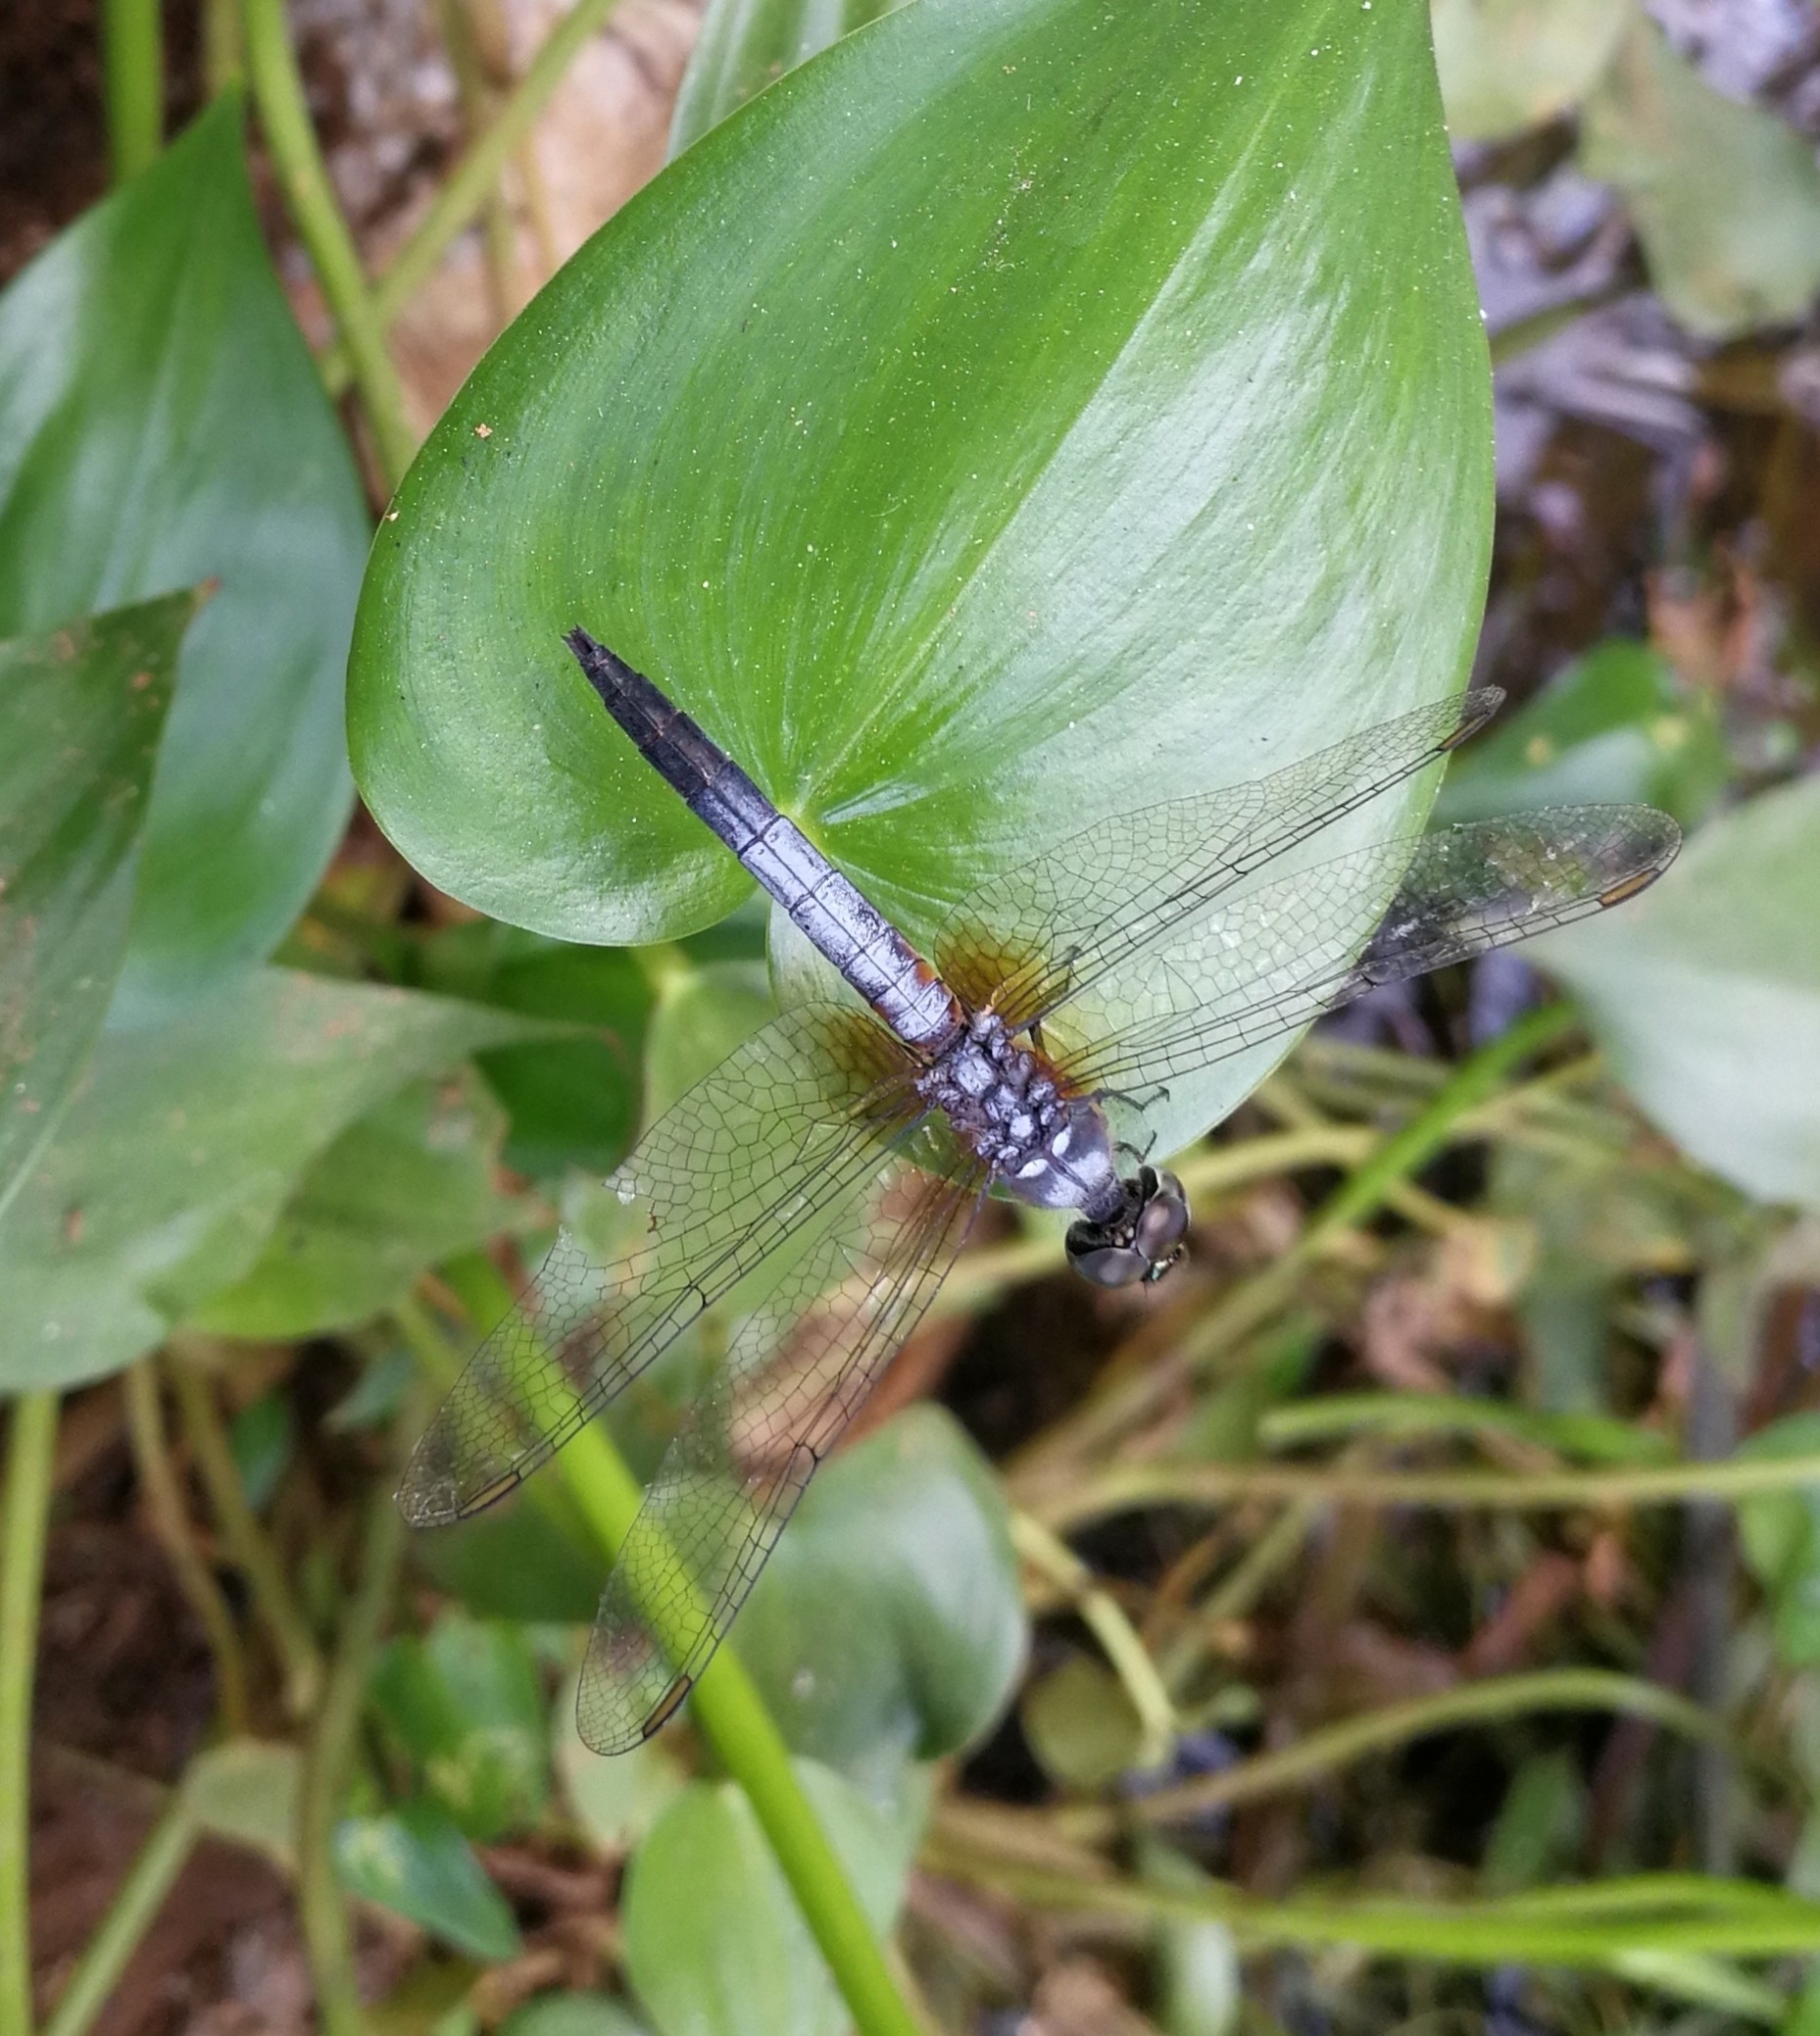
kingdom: Animalia
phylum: Arthropoda
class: Insecta
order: Odonata
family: Libellulidae
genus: Brachydiplax
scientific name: Brachydiplax chalybea
